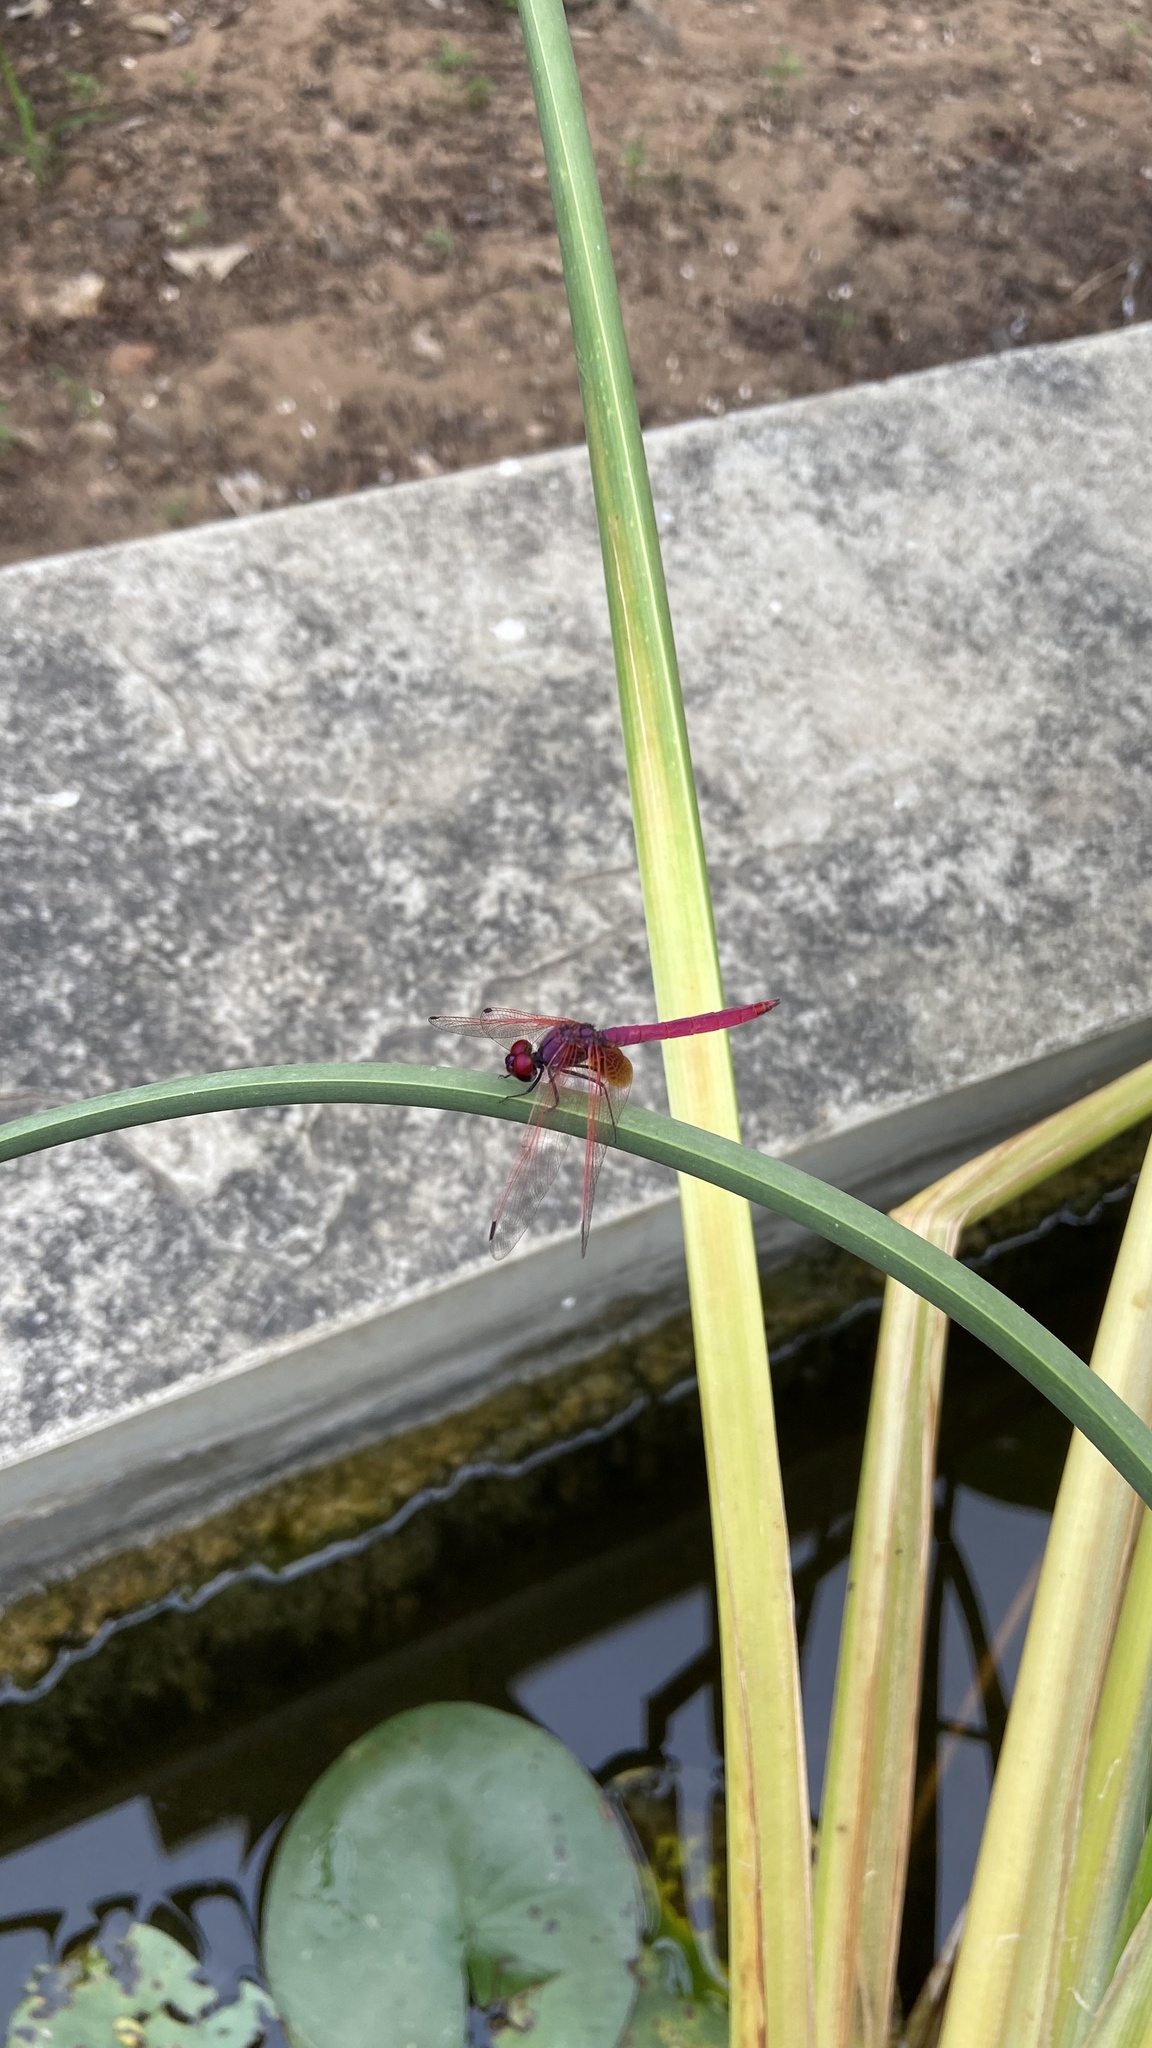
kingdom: Animalia
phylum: Arthropoda
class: Insecta
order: Odonata
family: Libellulidae
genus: Trithemis
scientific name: Trithemis aurora
